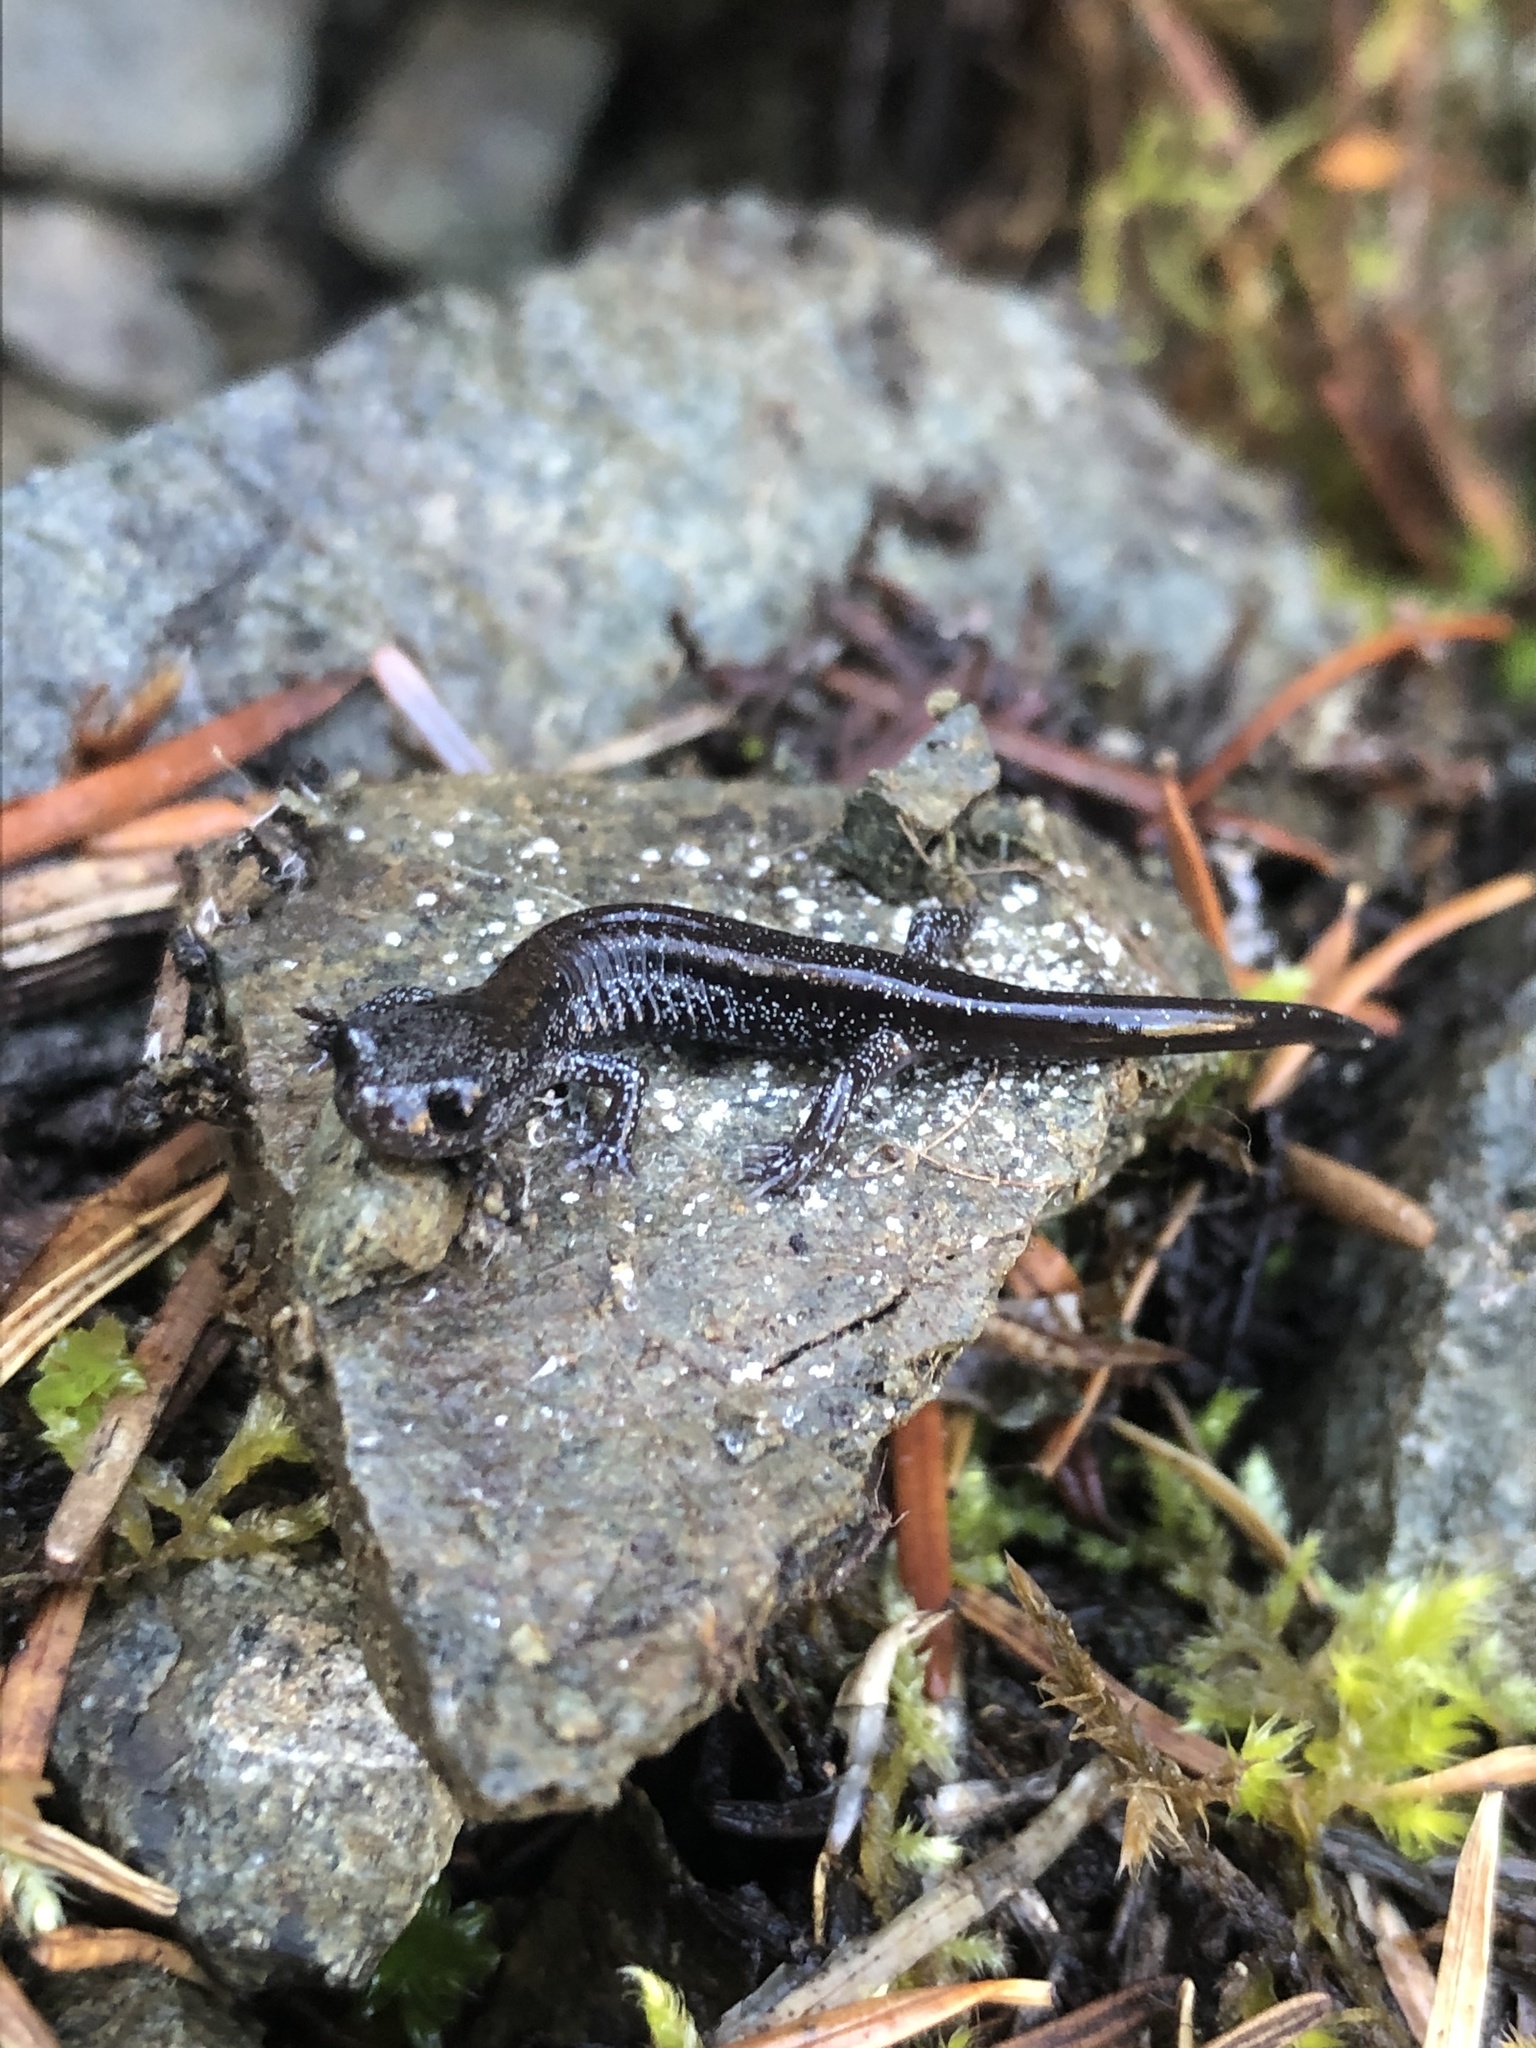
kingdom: Animalia
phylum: Chordata
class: Amphibia
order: Caudata
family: Plethodontidae
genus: Plethodon
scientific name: Plethodon stormi
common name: Siskiyou mountains salamander
